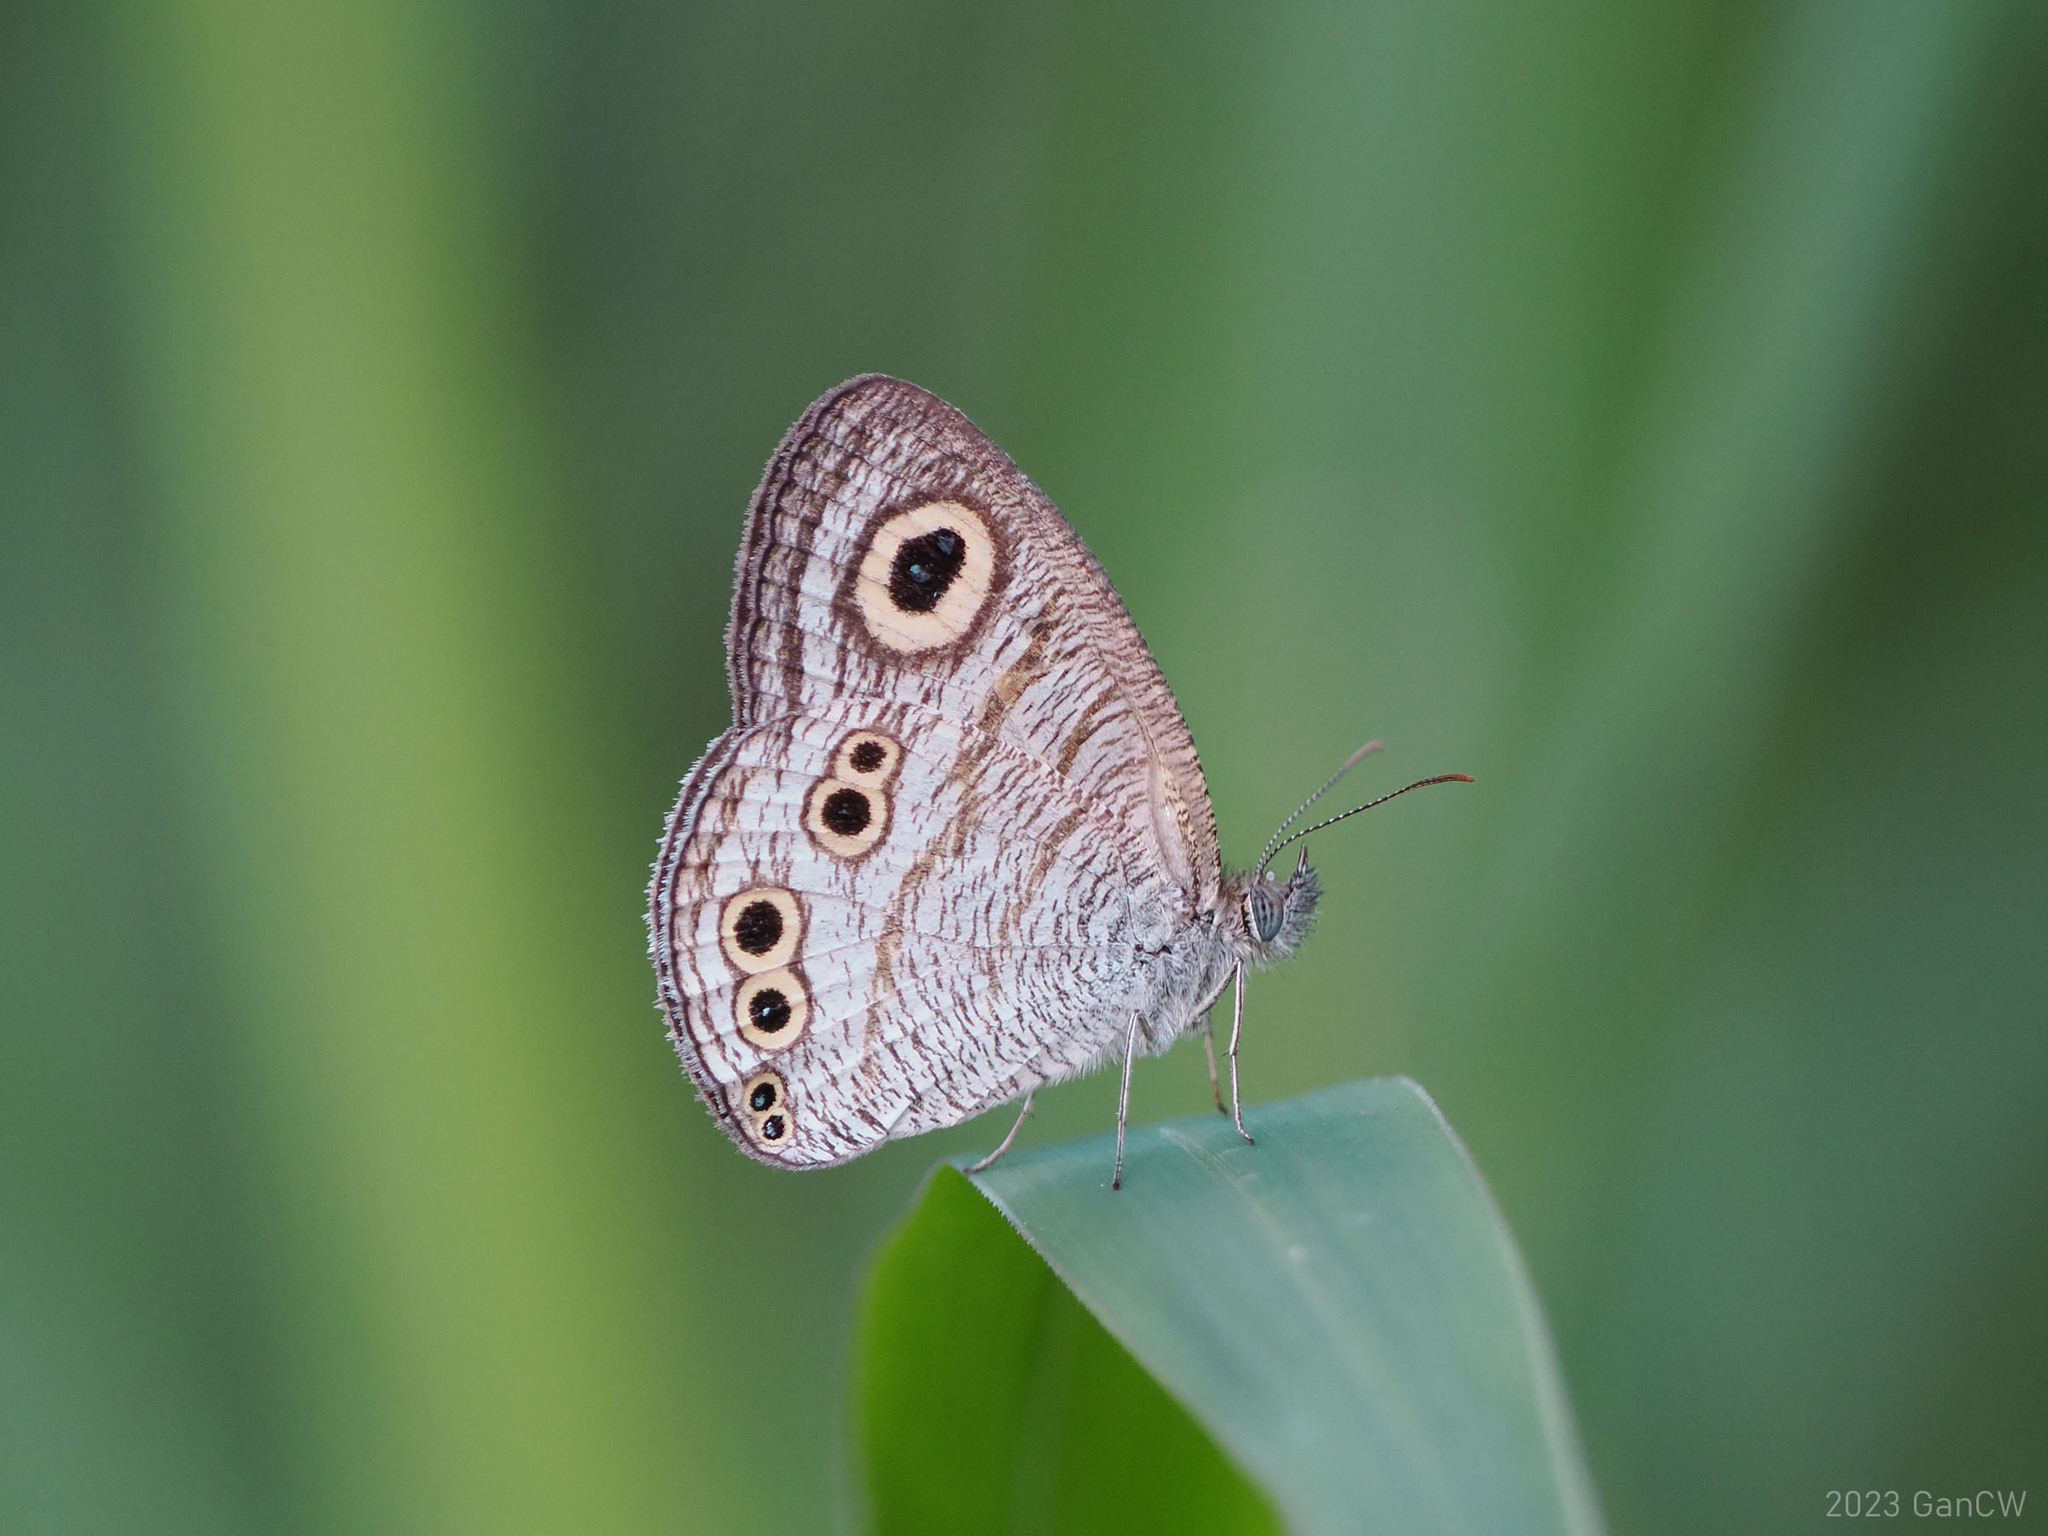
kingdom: Animalia
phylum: Arthropoda
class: Insecta
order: Lepidoptera
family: Nymphalidae
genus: Ypthima
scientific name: Ypthima stellera
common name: Philippine five-ring
